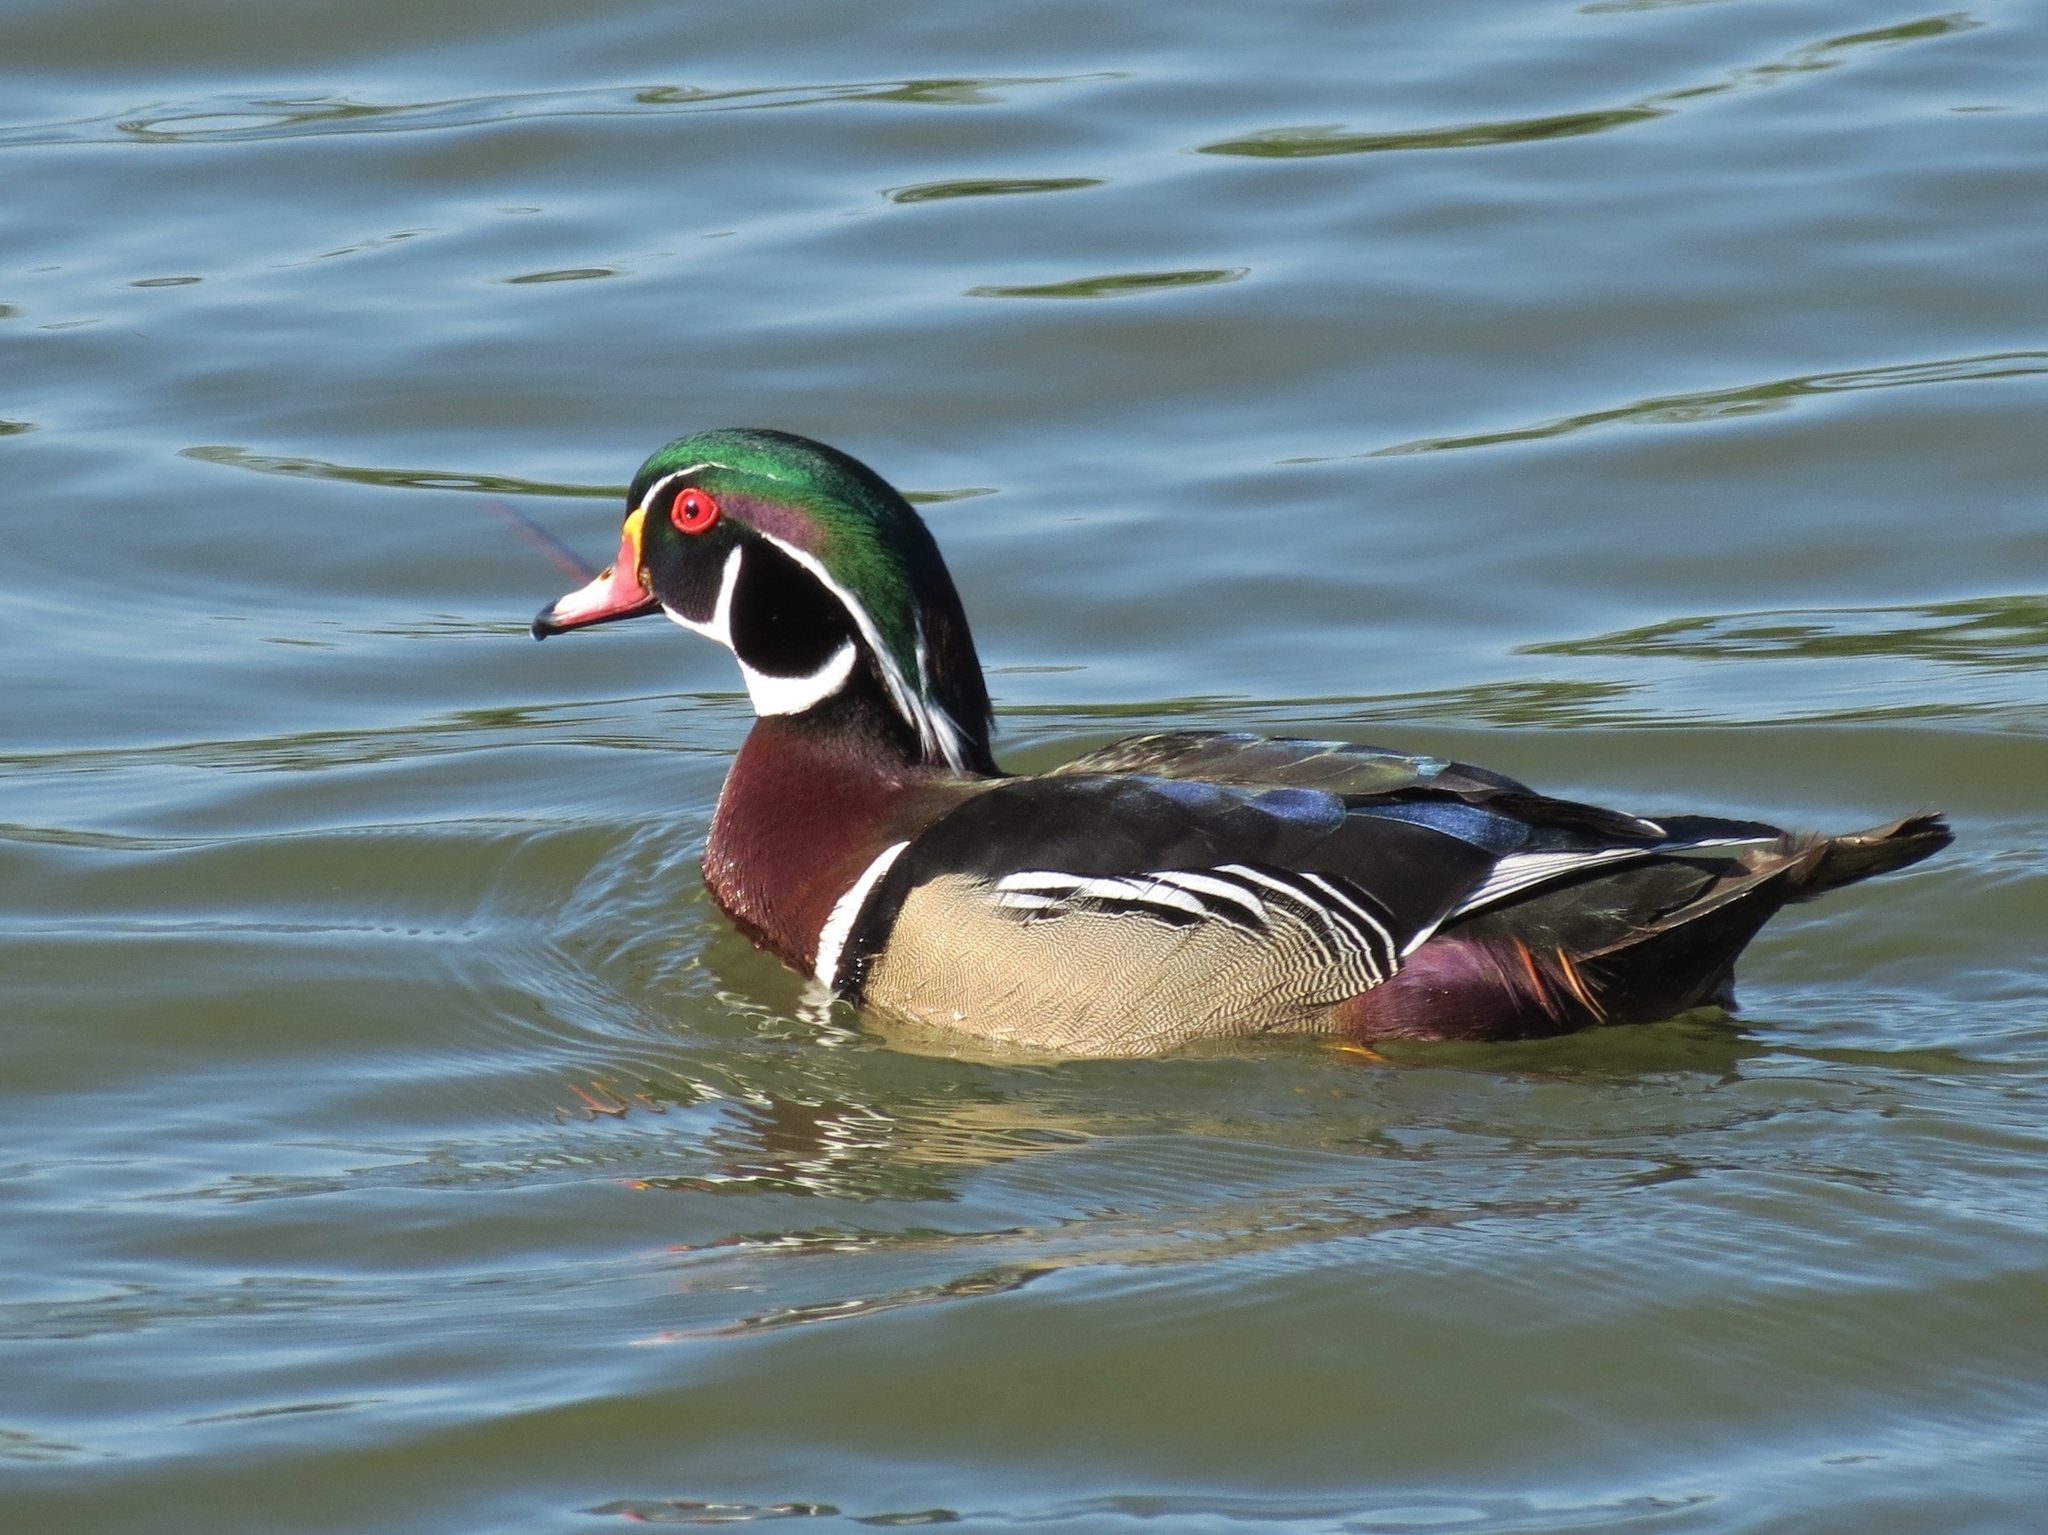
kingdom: Animalia
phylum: Chordata
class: Aves
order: Anseriformes
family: Anatidae
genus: Aix
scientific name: Aix sponsa
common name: Wood duck
